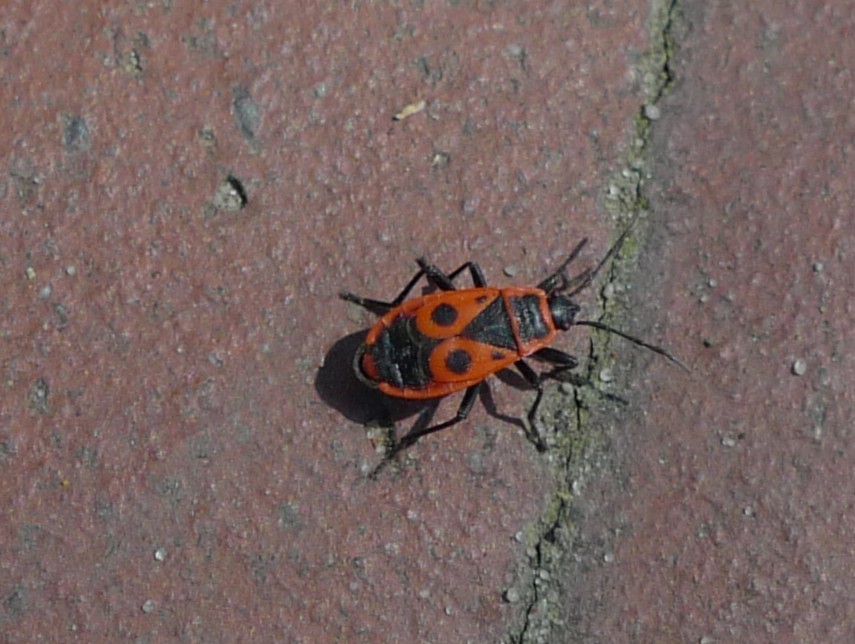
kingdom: Animalia
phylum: Arthropoda
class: Insecta
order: Hemiptera
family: Pyrrhocoridae
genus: Pyrrhocoris
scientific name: Pyrrhocoris apterus
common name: Firebug
